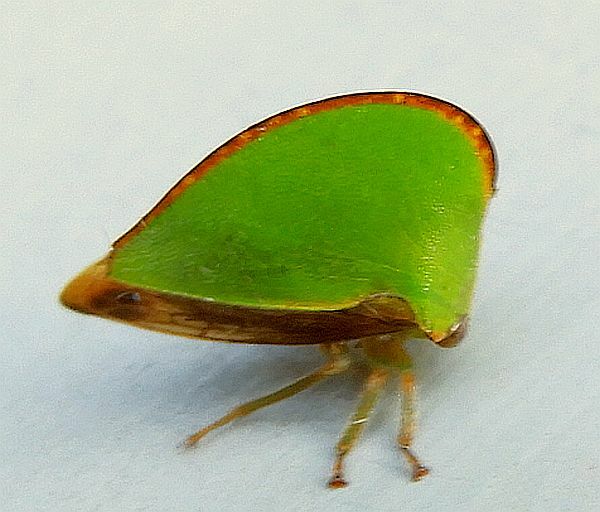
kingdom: Animalia
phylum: Arthropoda
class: Insecta
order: Hemiptera
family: Membracidae
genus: Archasia
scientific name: Archasia belfragei
